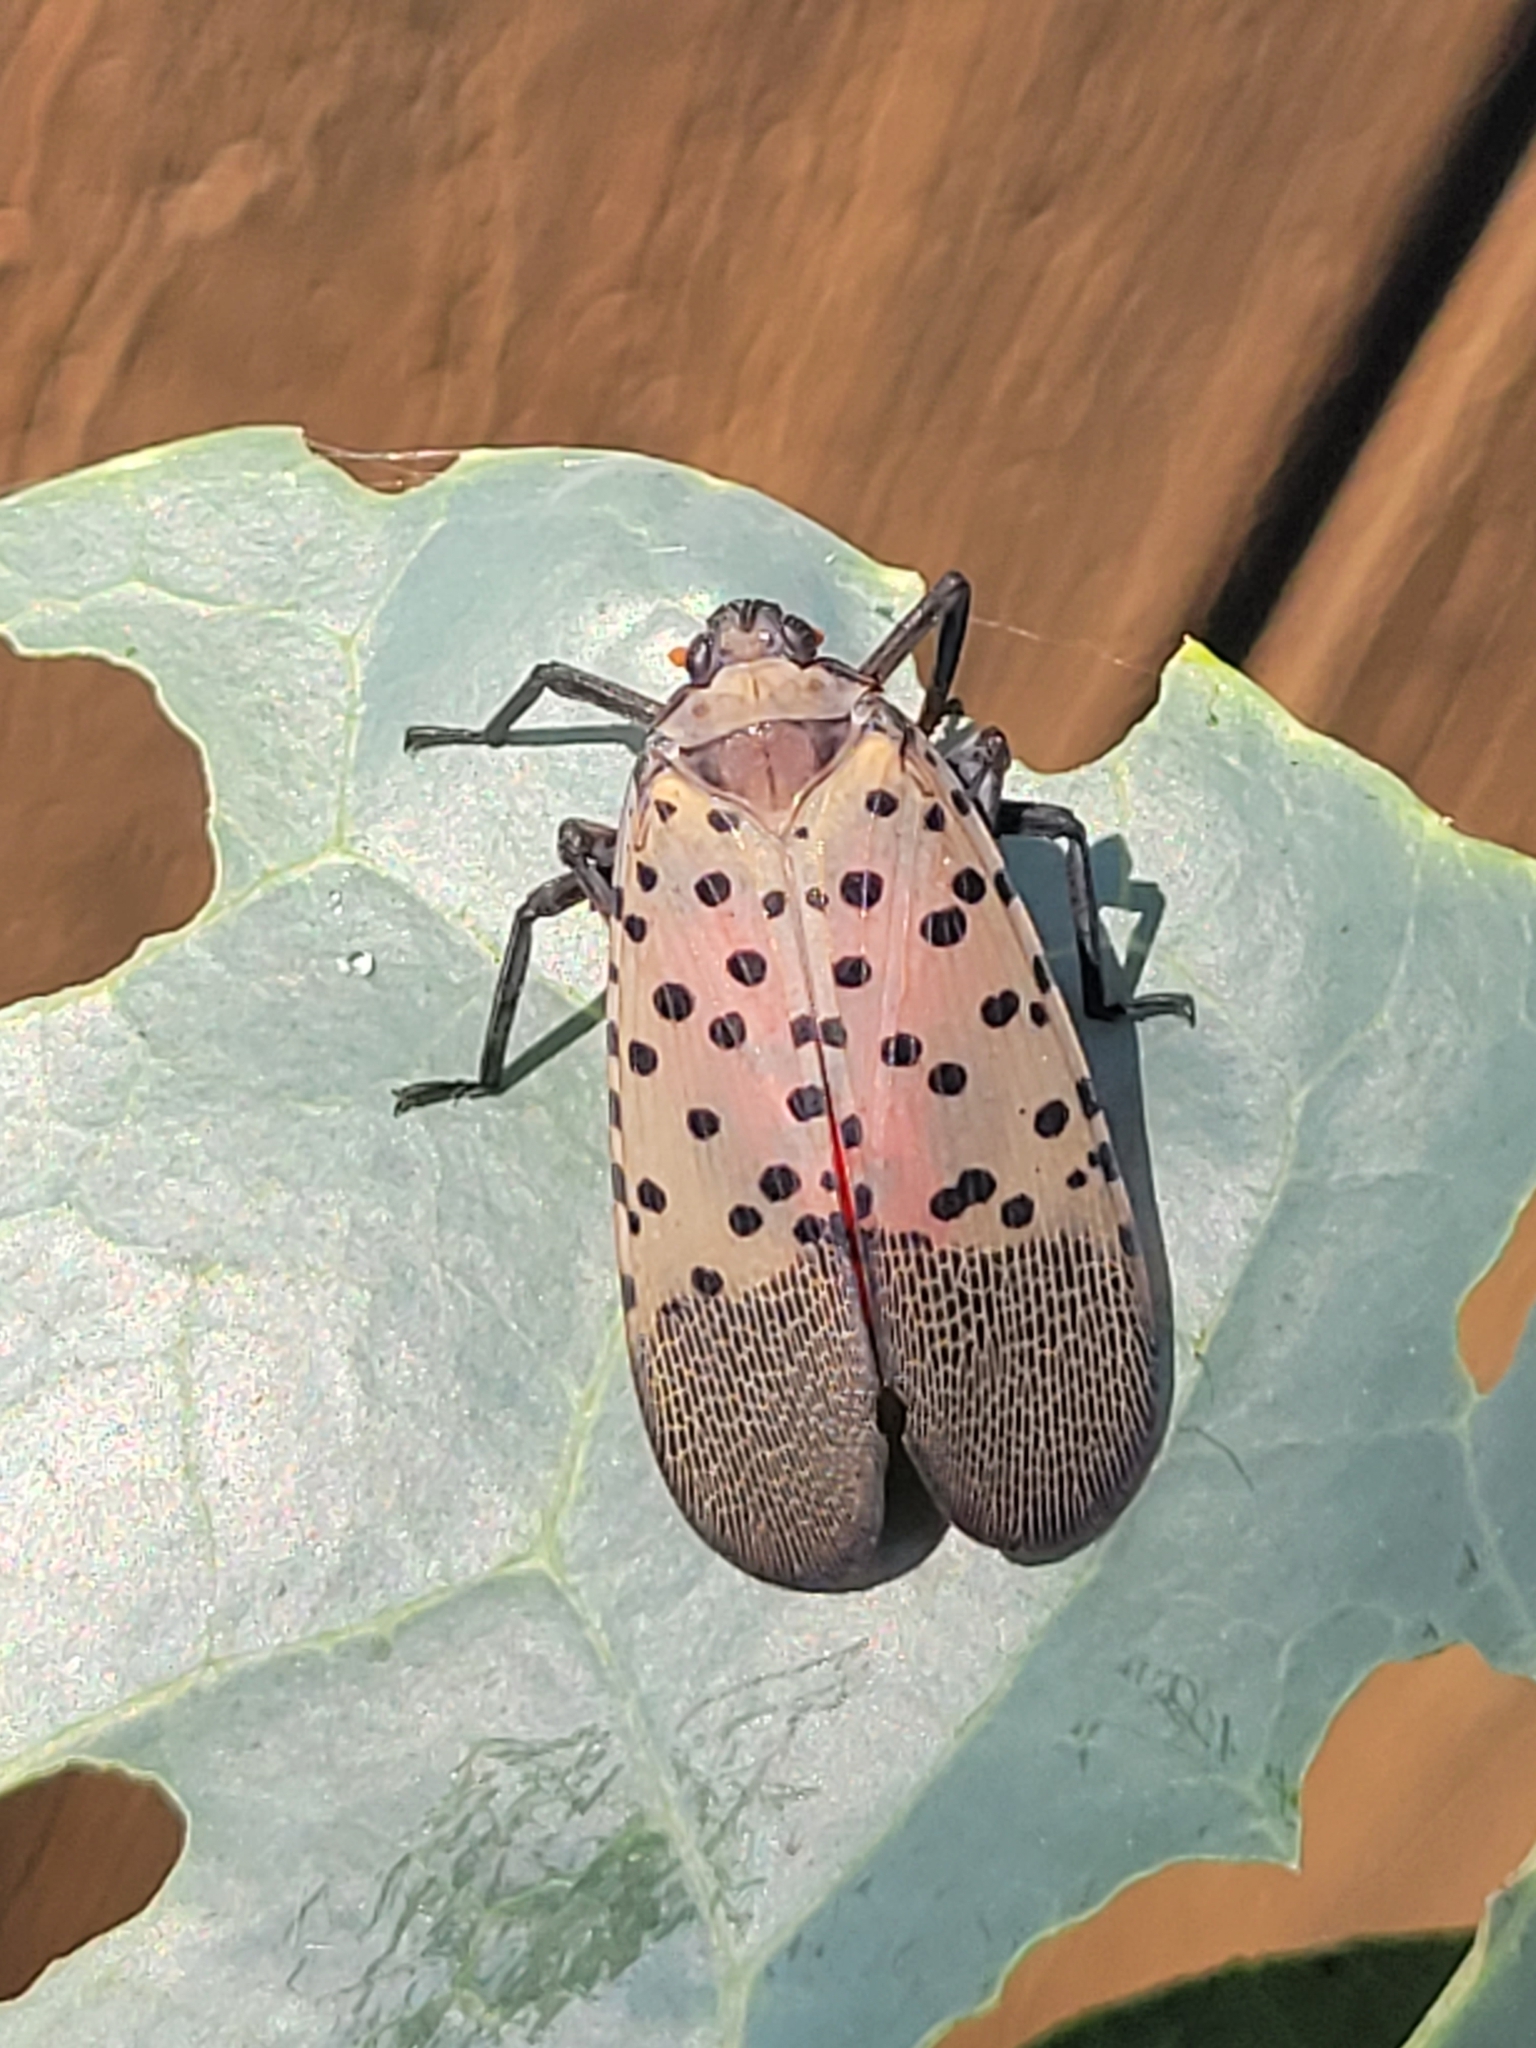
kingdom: Animalia
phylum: Arthropoda
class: Insecta
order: Hemiptera
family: Fulgoridae
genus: Lycorma
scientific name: Lycorma delicatula
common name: Spotted lanternfly
